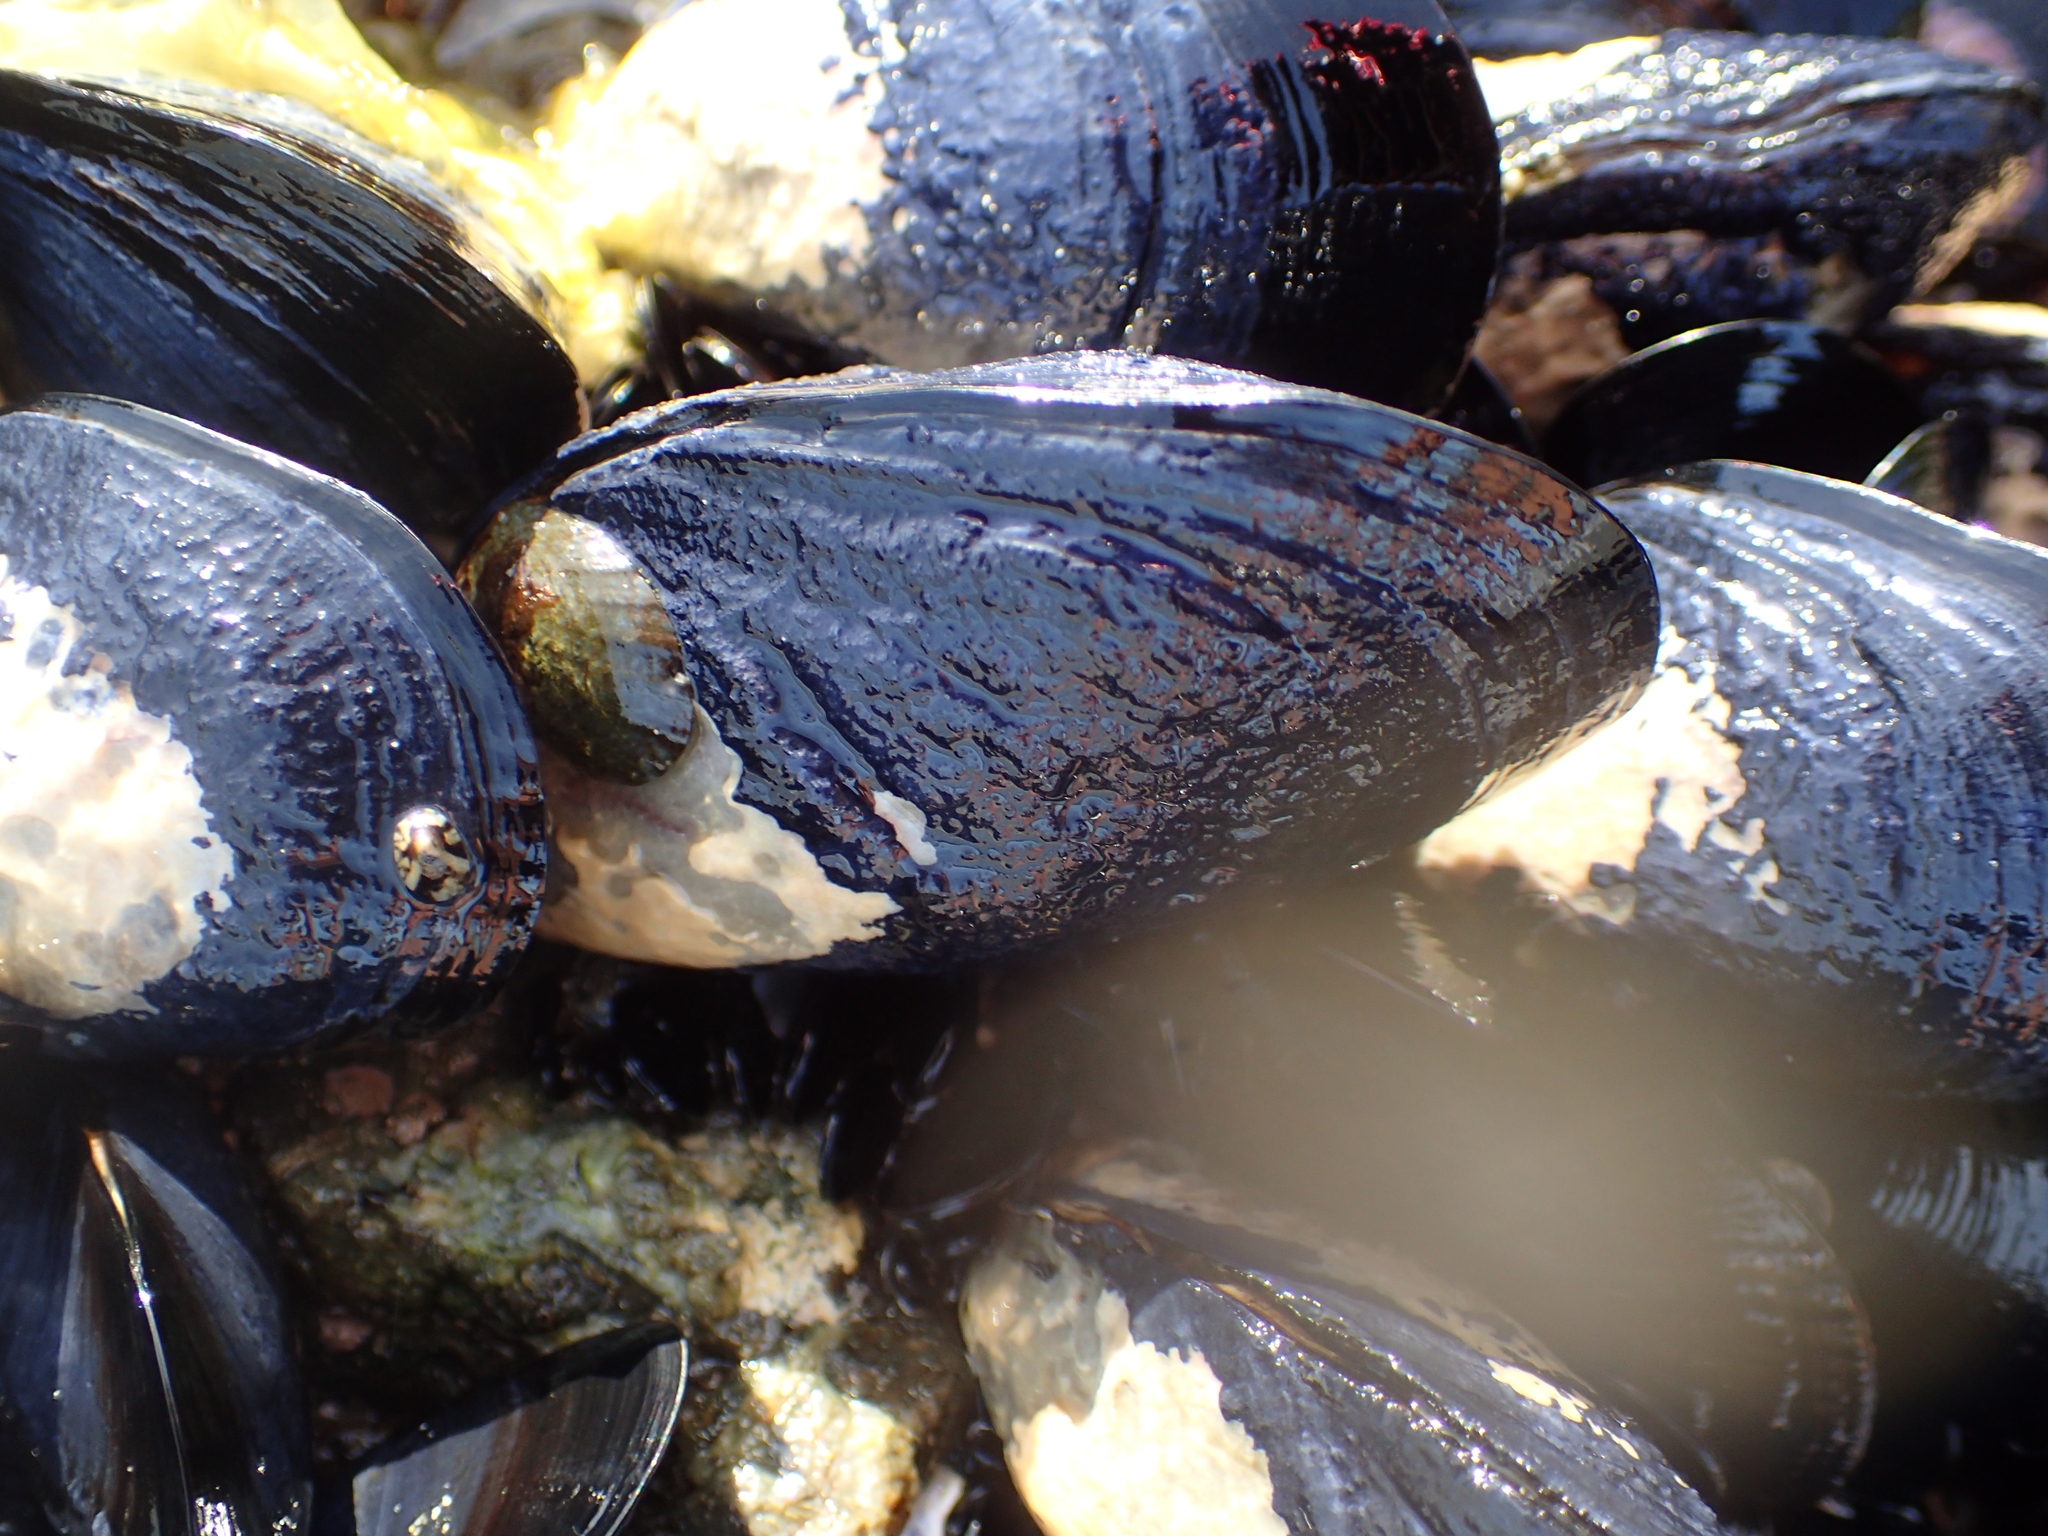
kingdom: Animalia
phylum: Mollusca
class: Bivalvia
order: Mytilida
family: Mytilidae
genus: Mytilus
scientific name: Mytilus planulatus
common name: Australian mussel
